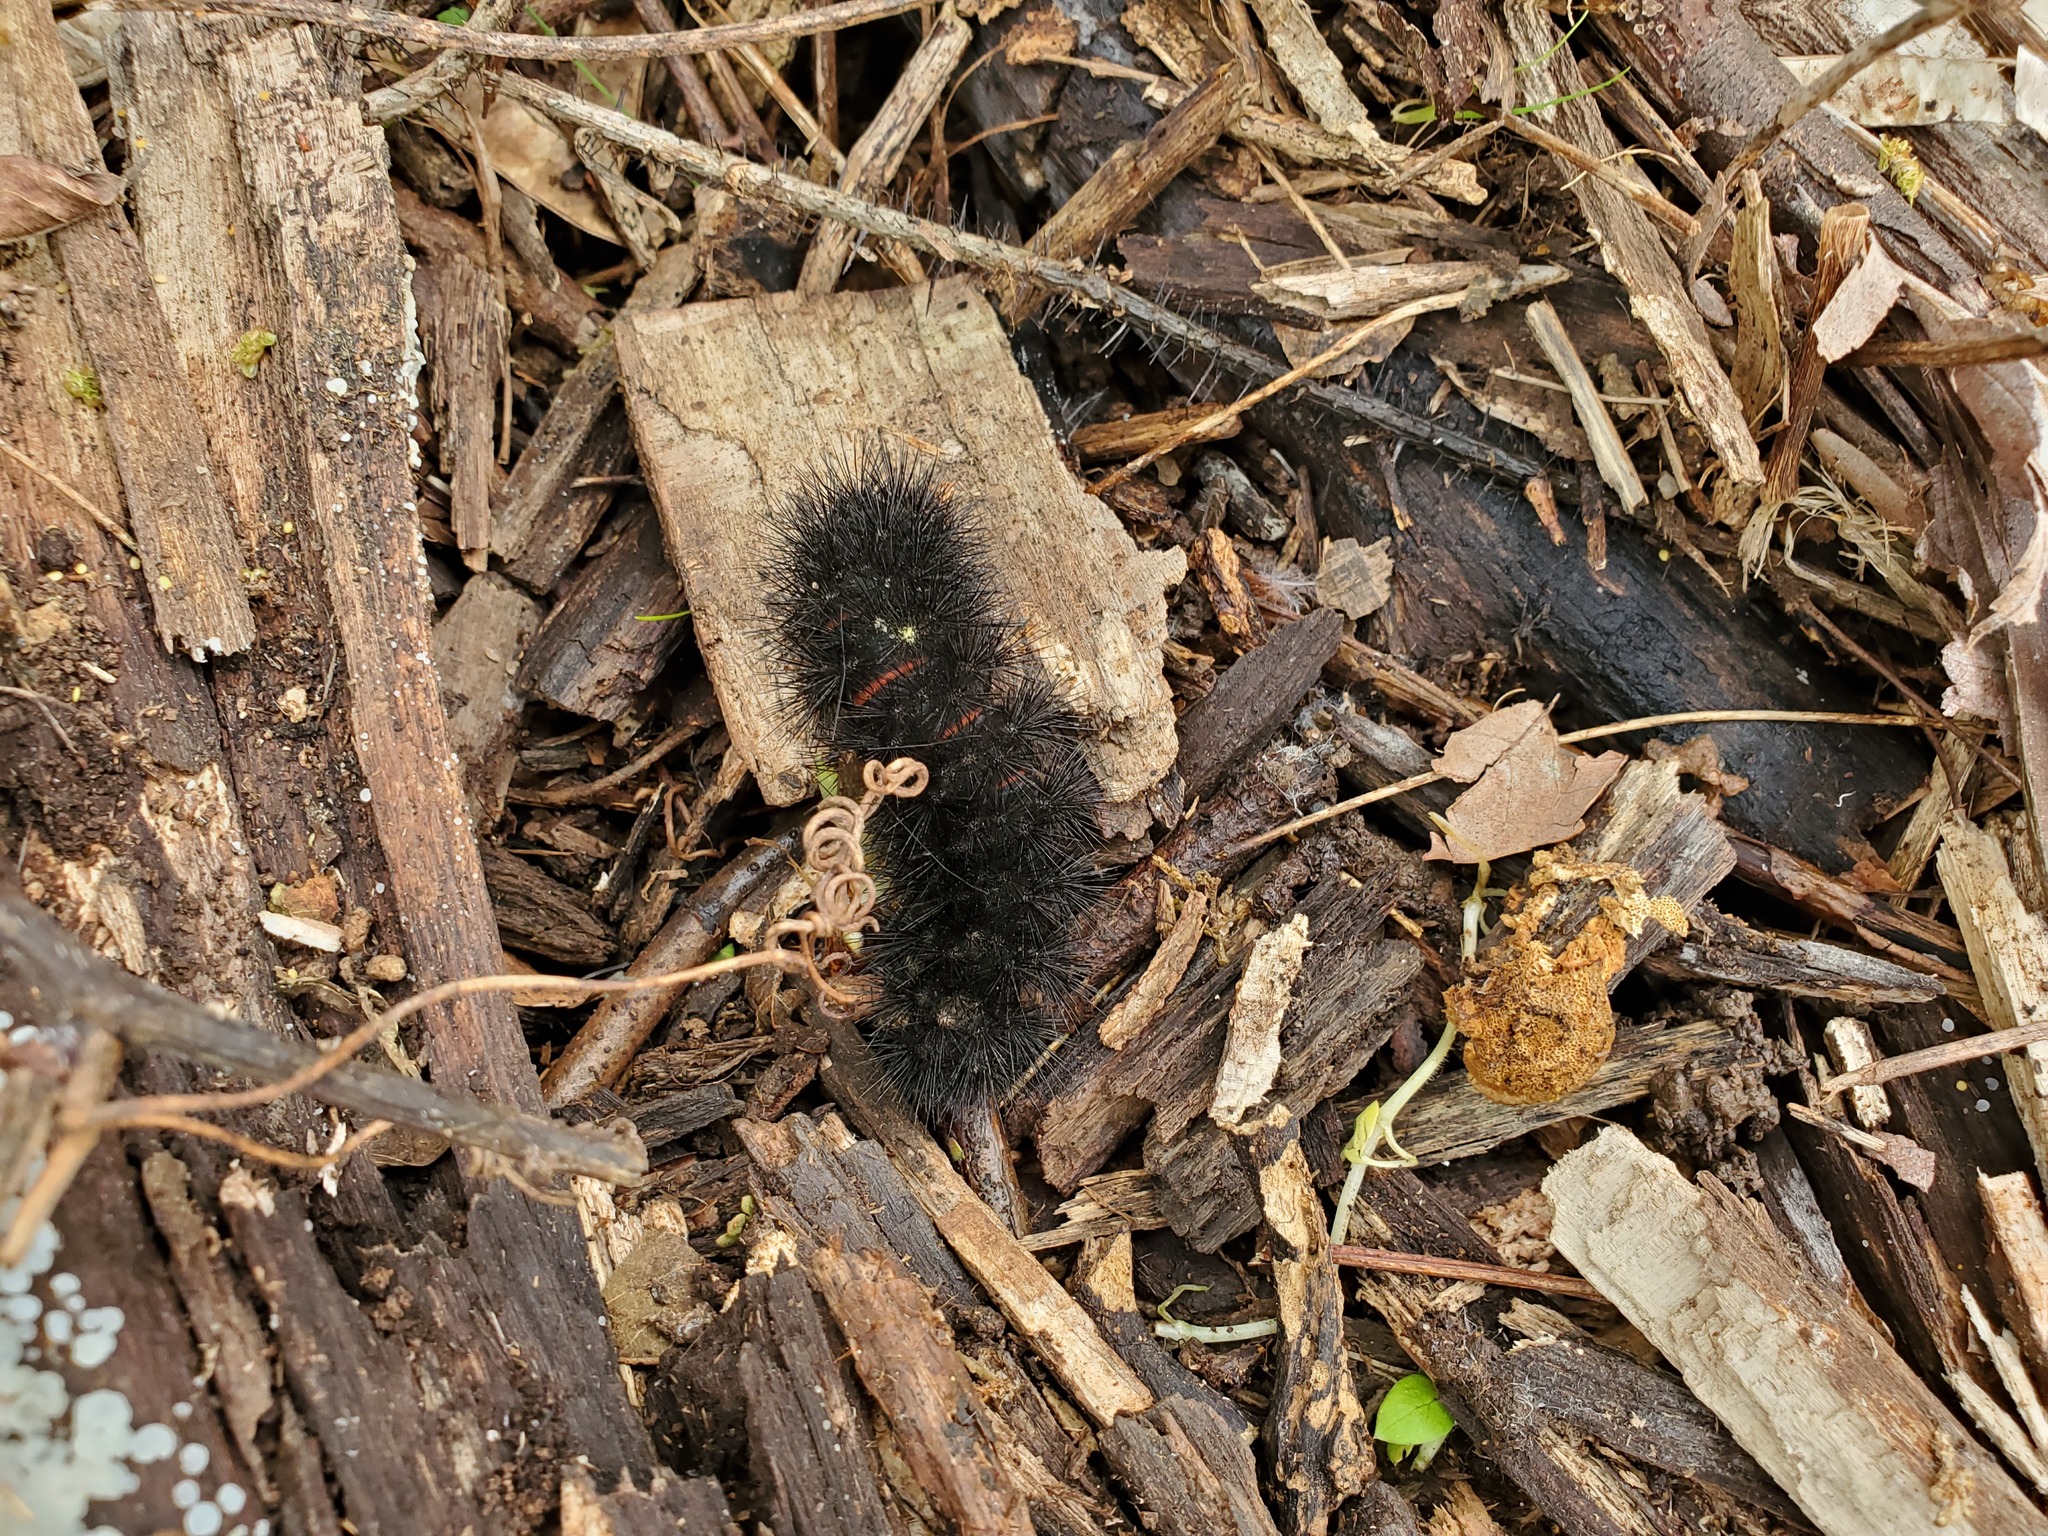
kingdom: Animalia
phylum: Arthropoda
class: Insecta
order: Lepidoptera
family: Erebidae
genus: Hypercompe
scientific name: Hypercompe scribonia
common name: Giant leopard moth
